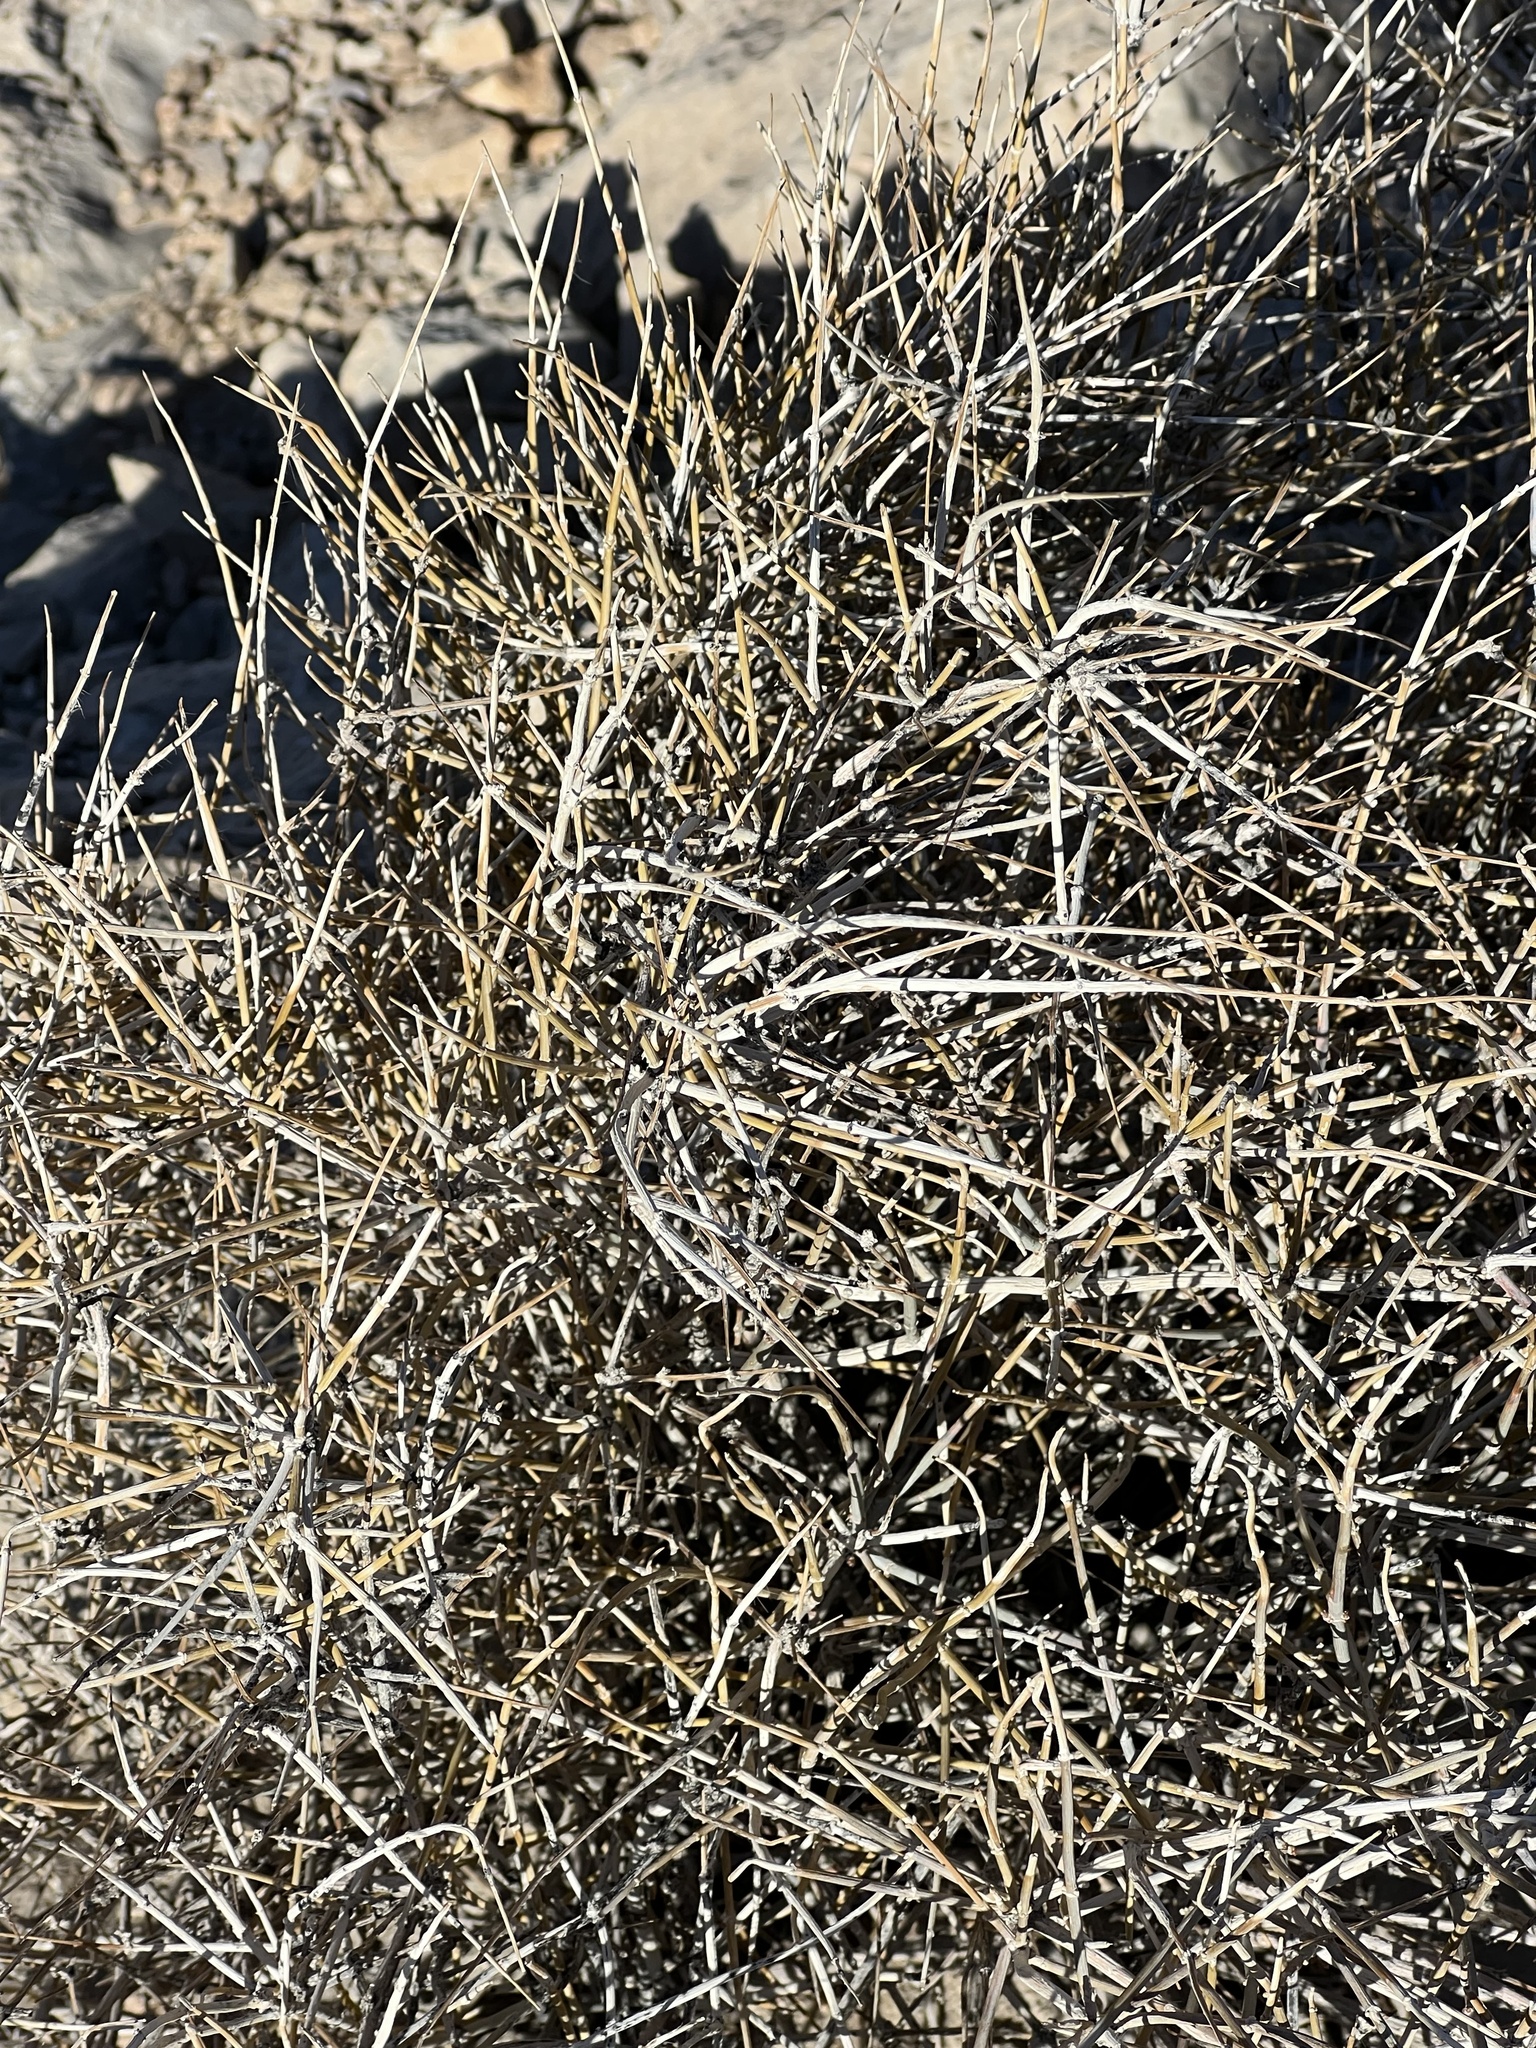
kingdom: Plantae
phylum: Tracheophyta
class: Gnetopsida
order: Ephedrales
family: Ephedraceae
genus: Ephedra
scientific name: Ephedra nevadensis
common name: Gray ephedra
